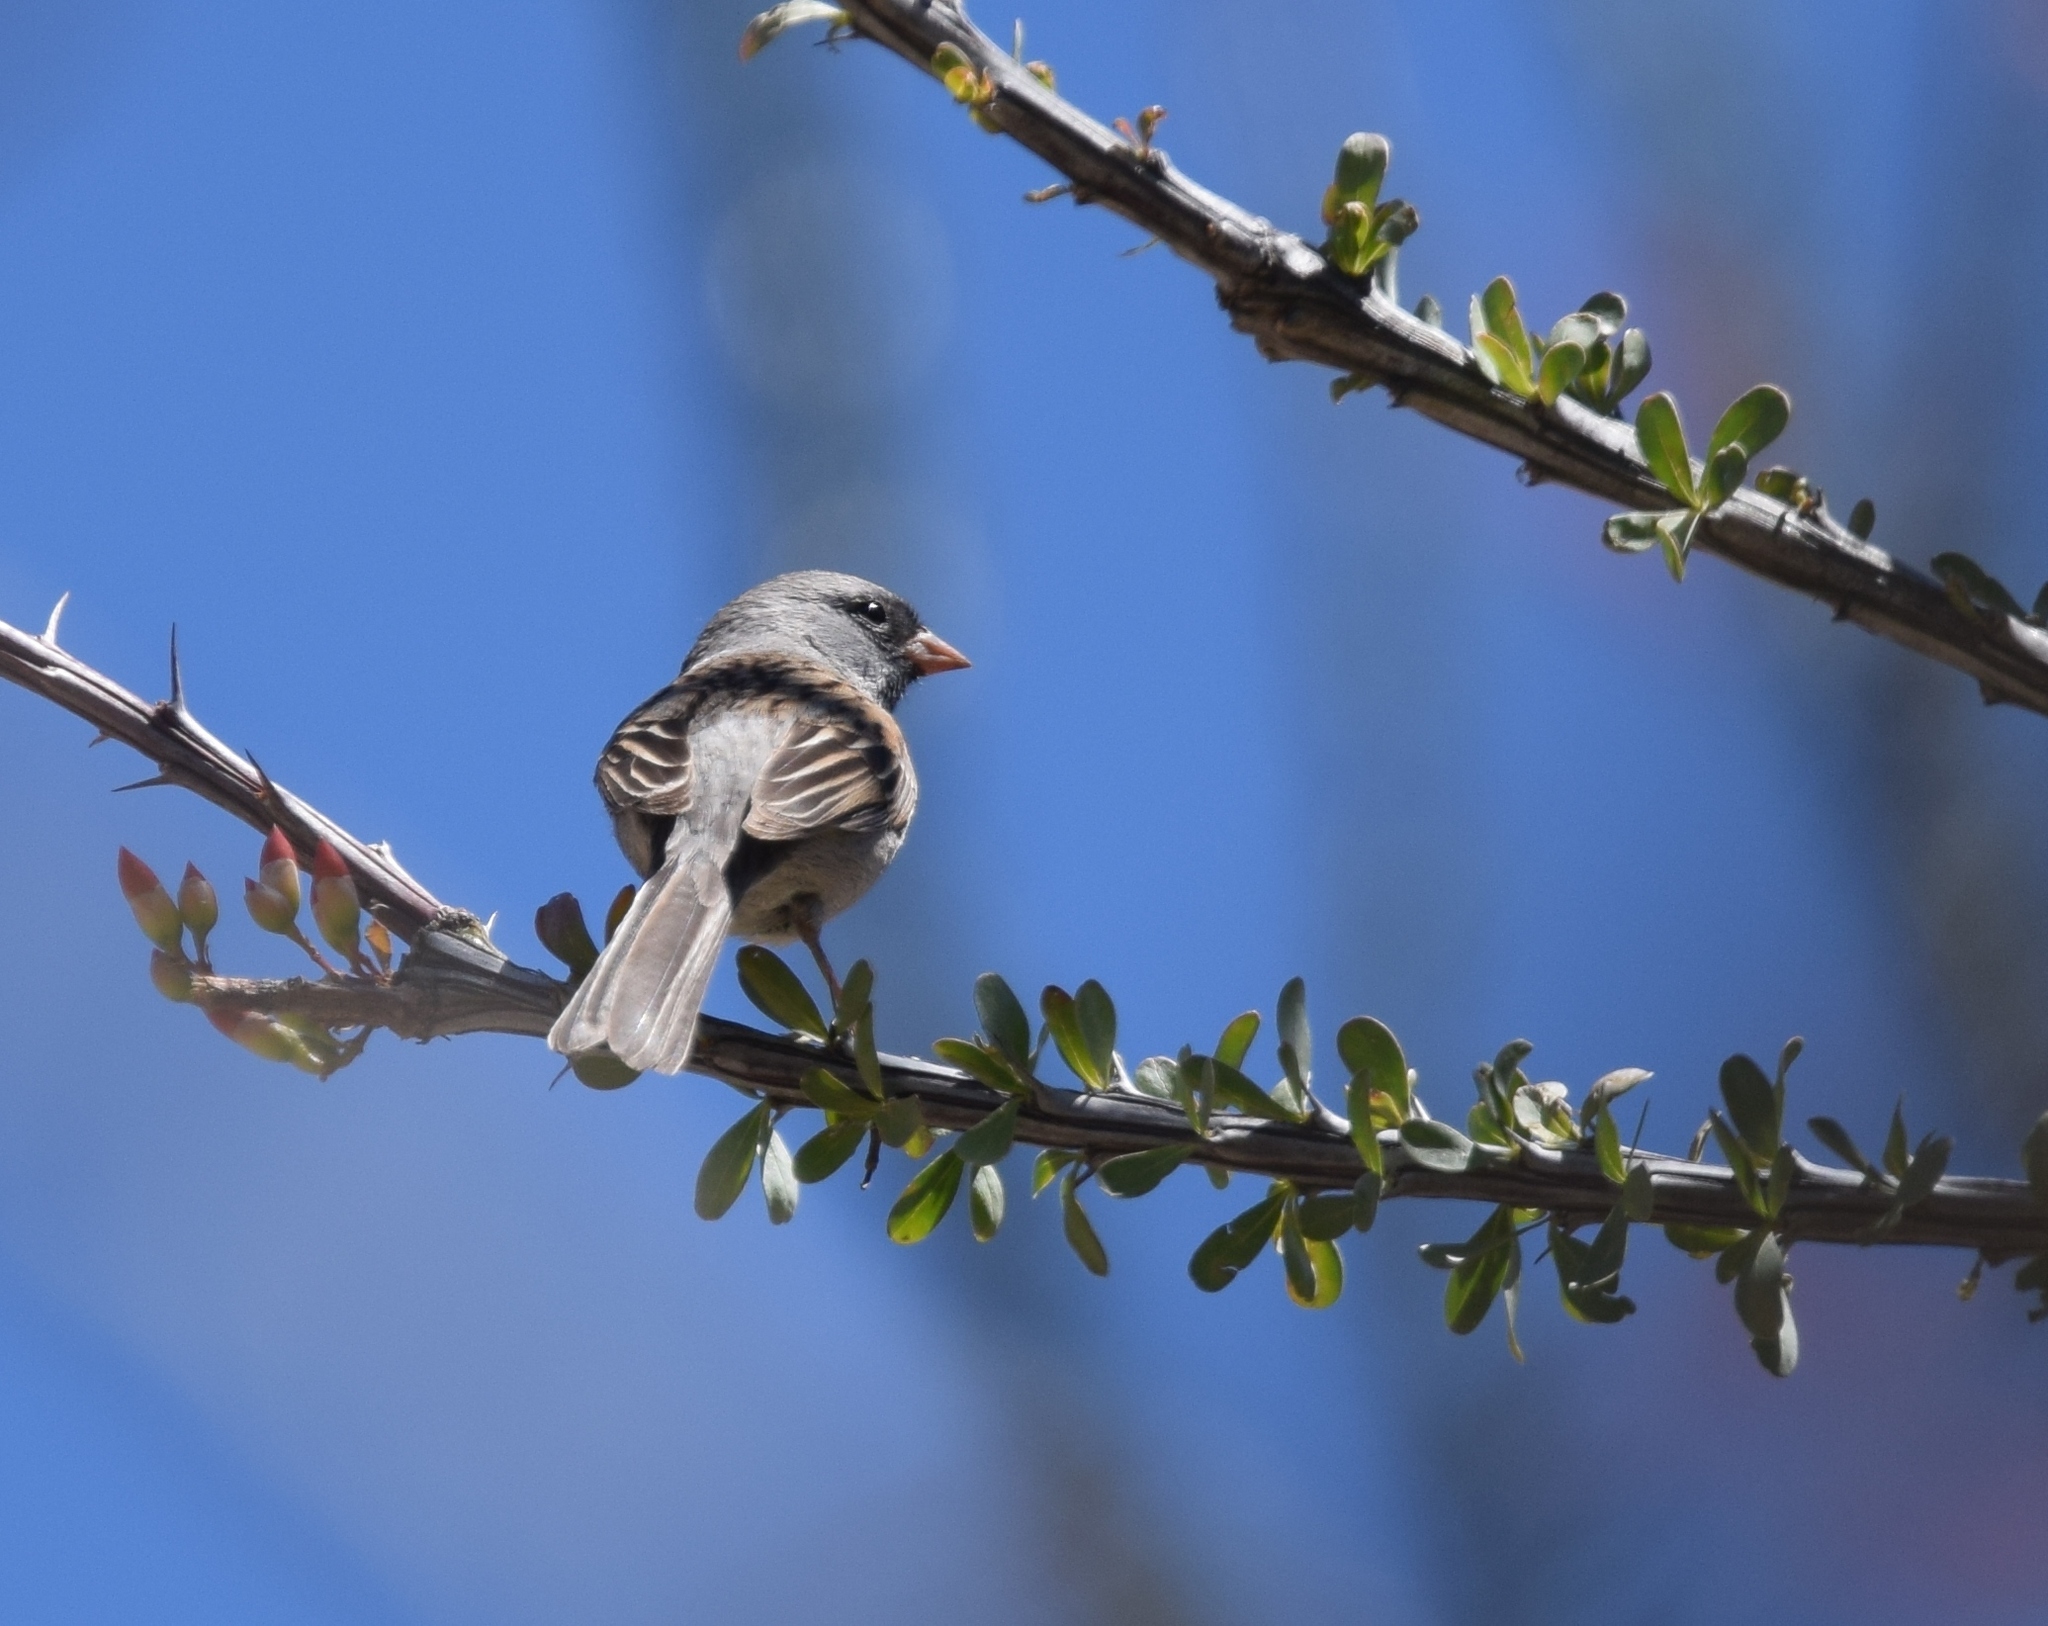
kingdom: Animalia
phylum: Chordata
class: Aves
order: Passeriformes
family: Passerellidae
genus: Spizella
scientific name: Spizella atrogularis
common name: Black-chinned sparrow
